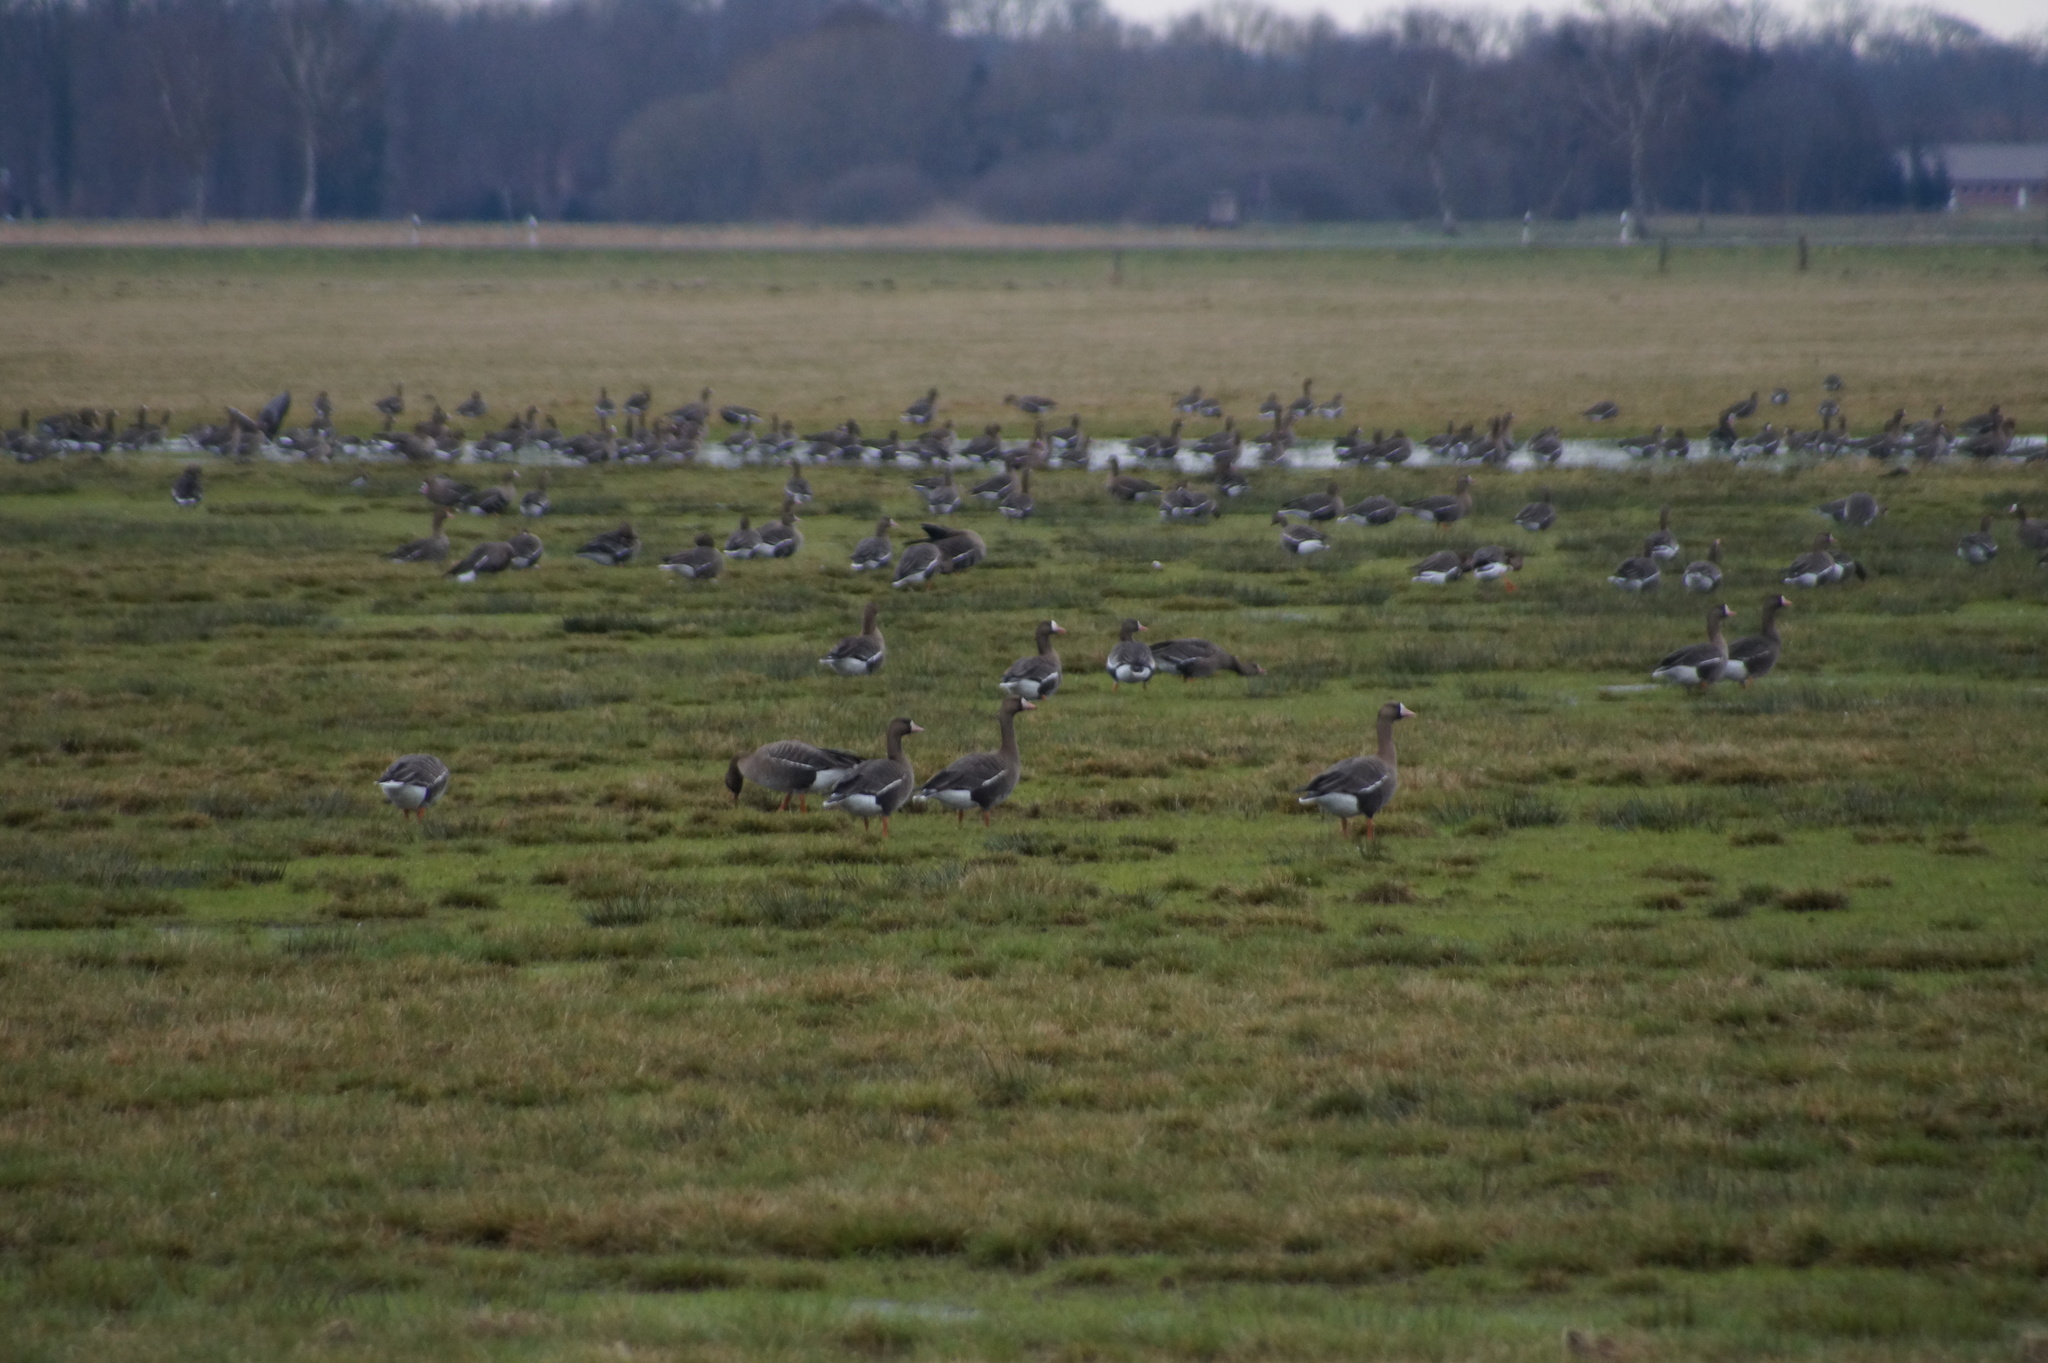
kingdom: Animalia
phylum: Chordata
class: Aves
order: Anseriformes
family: Anatidae
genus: Anser
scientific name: Anser albifrons
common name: Greater white-fronted goose
